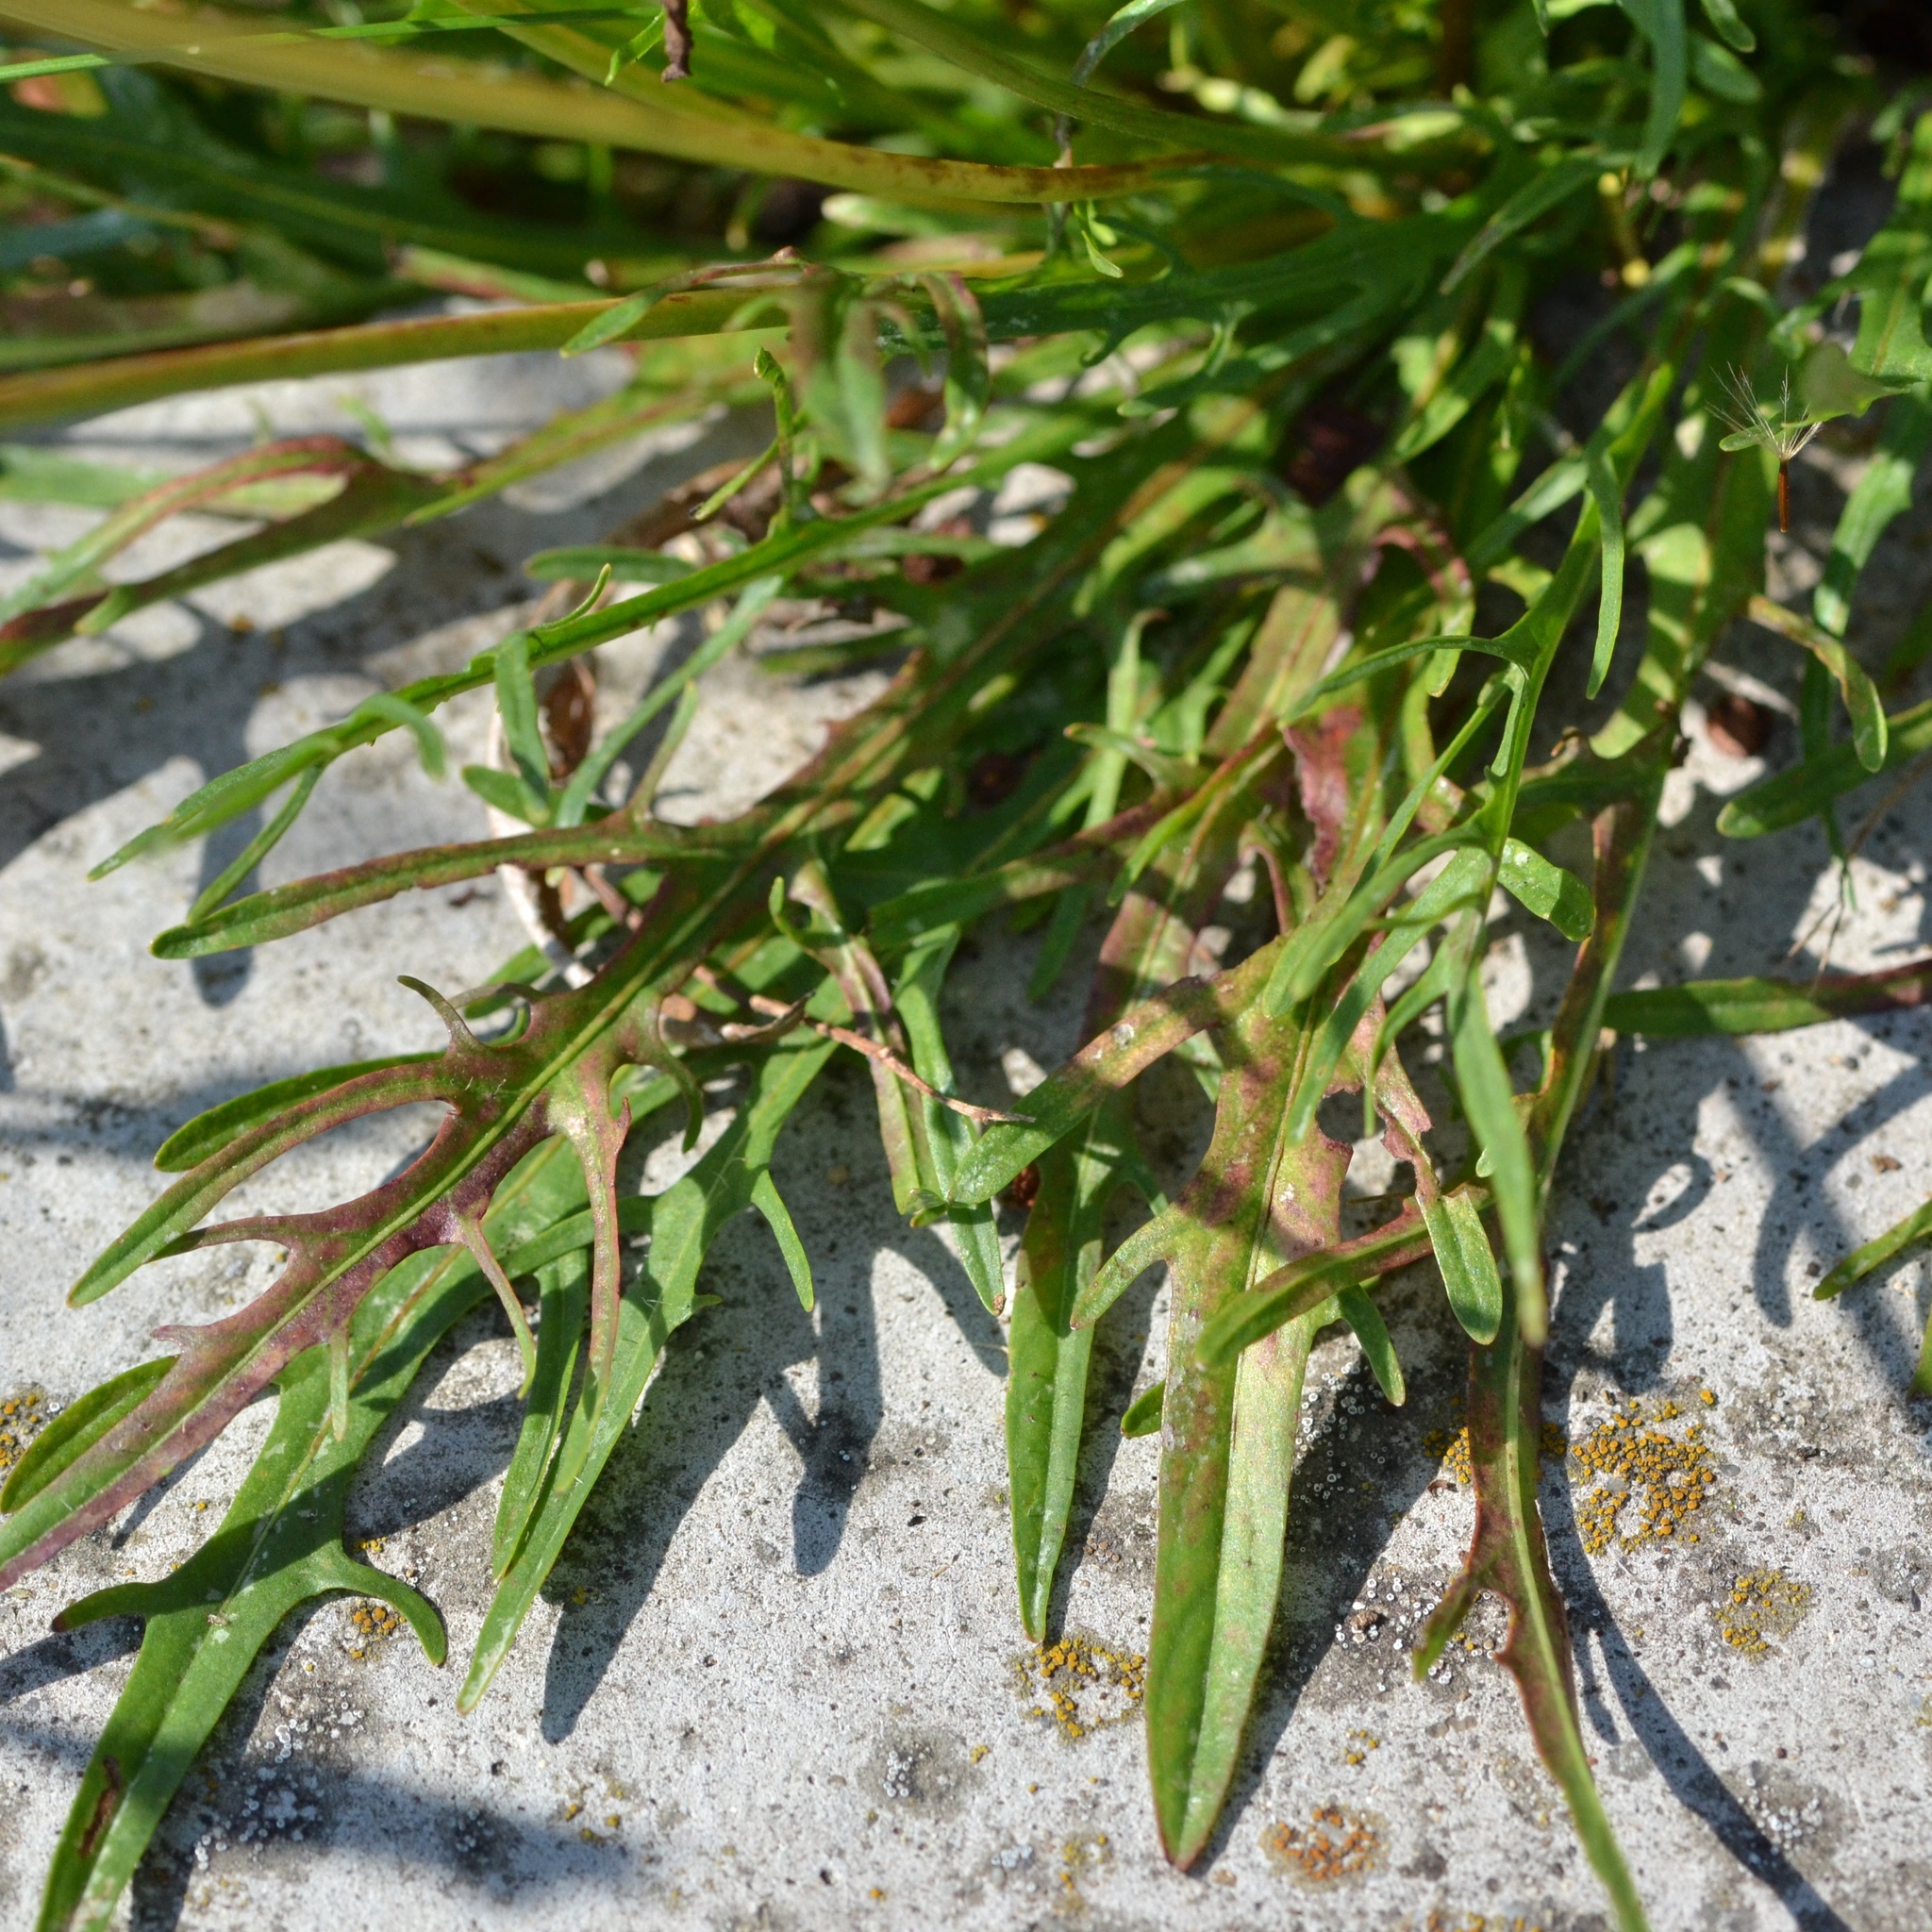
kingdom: Plantae
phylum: Tracheophyta
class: Magnoliopsida
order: Asterales
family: Asteraceae
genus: Scorzoneroides
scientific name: Scorzoneroides autumnalis
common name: Autumn hawkbit
